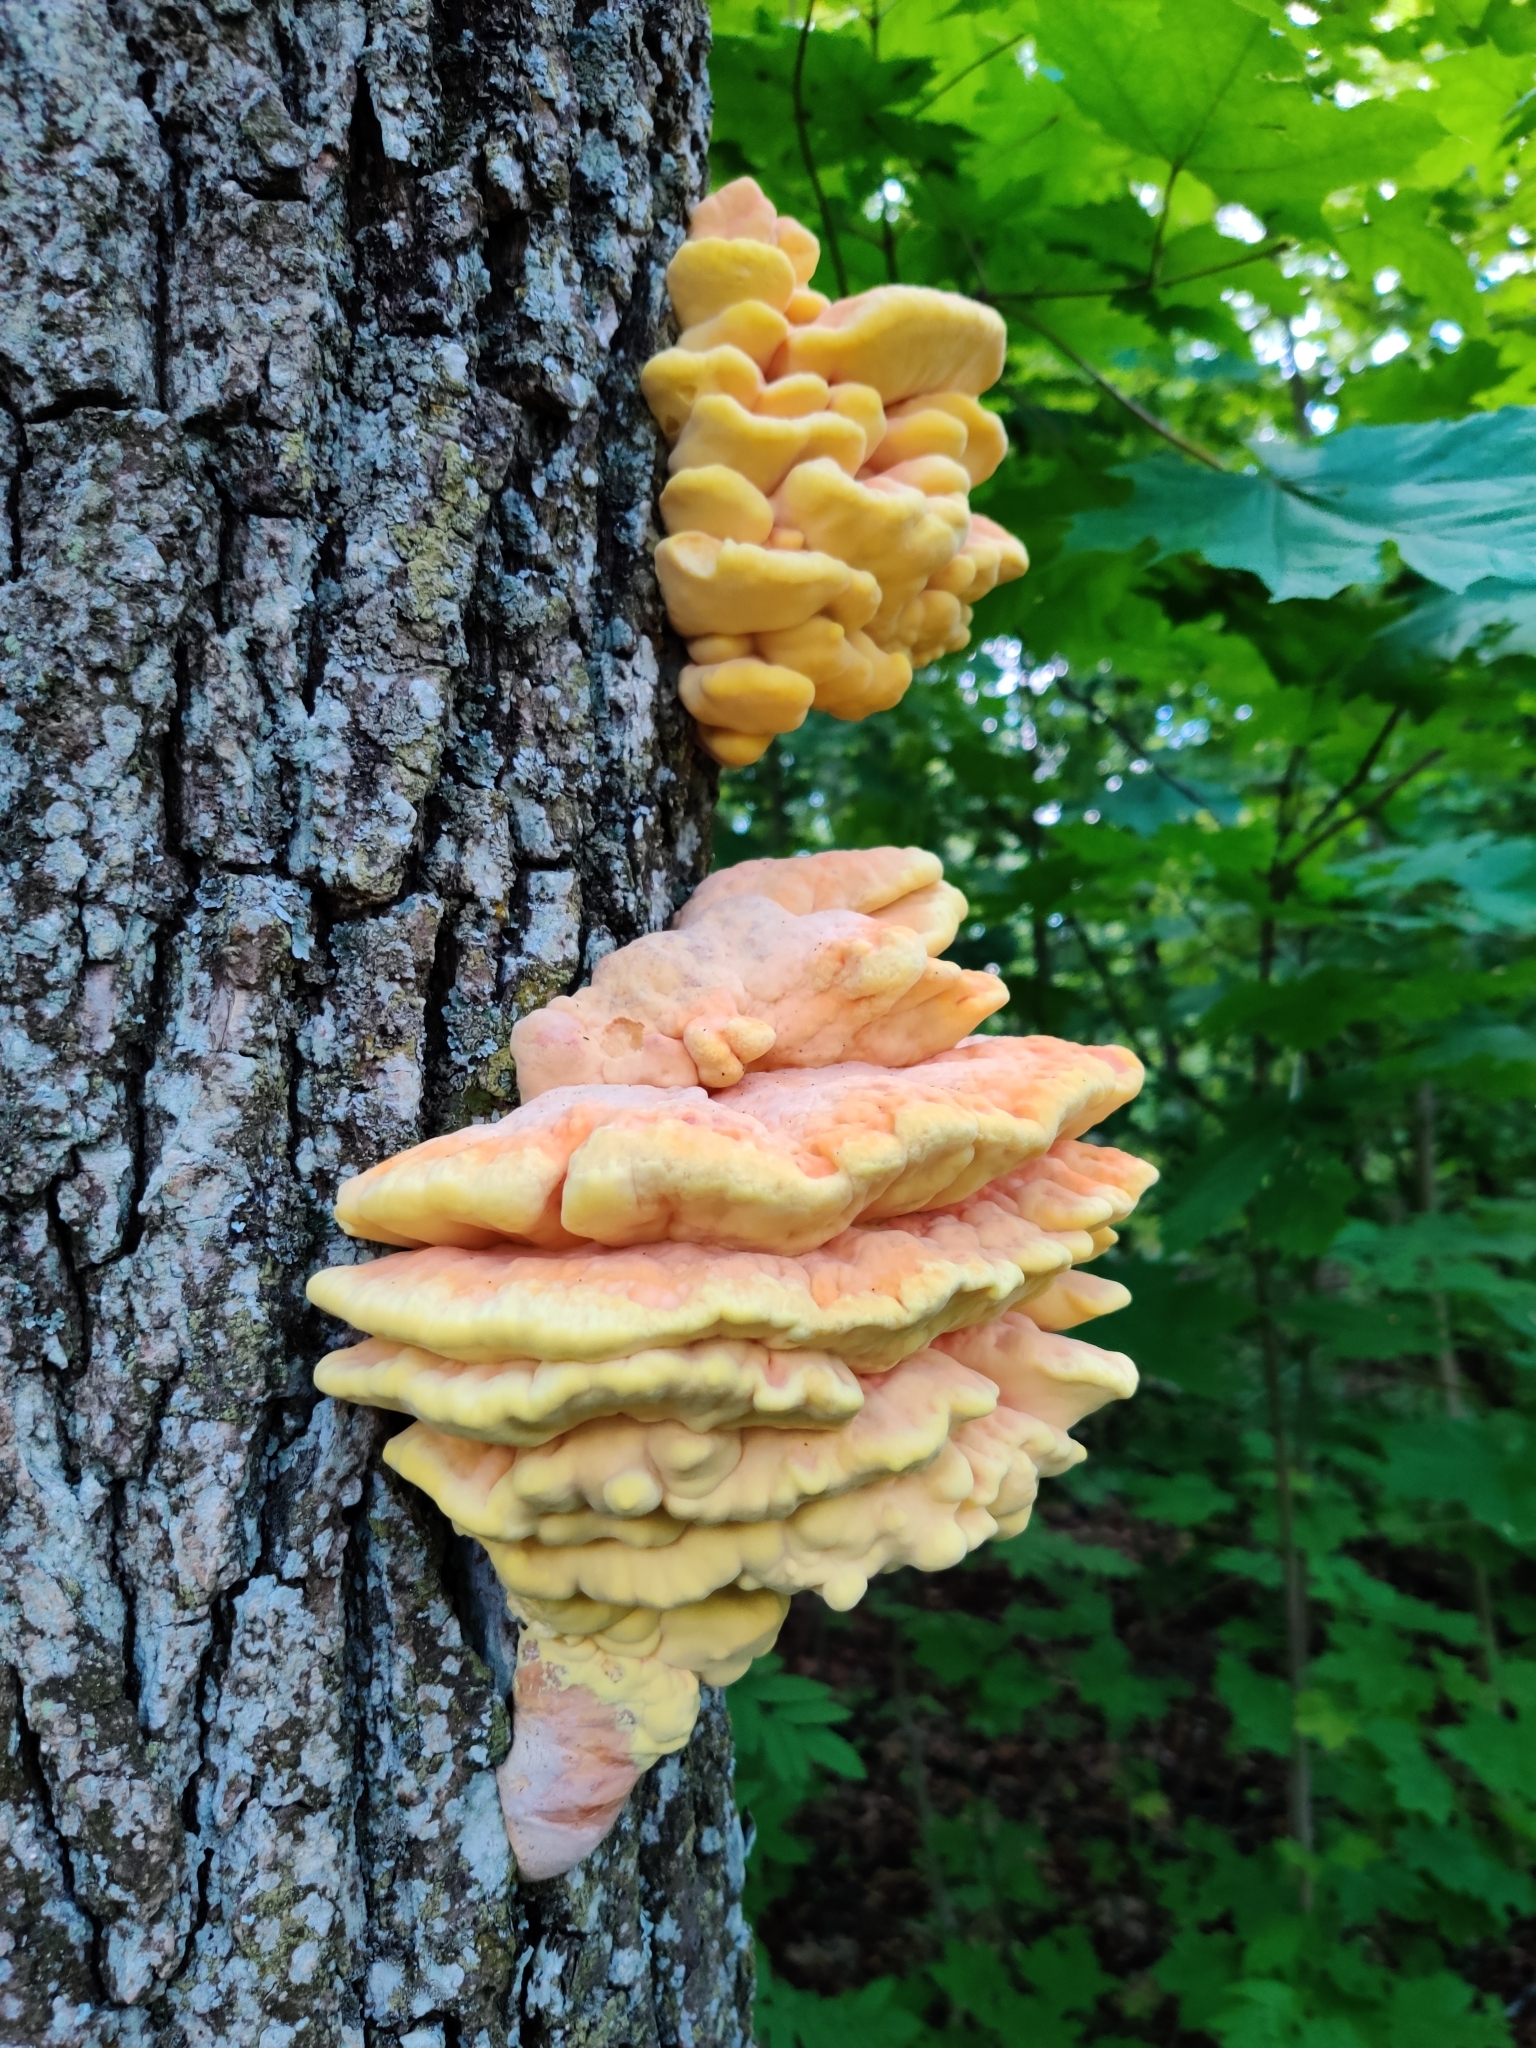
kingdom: Fungi
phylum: Basidiomycota
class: Agaricomycetes
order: Polyporales
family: Laetiporaceae
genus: Laetiporus
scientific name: Laetiporus sulphureus
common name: Chicken of the woods
